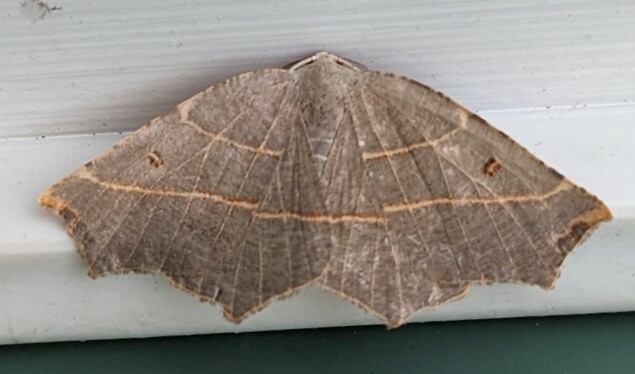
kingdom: Animalia
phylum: Arthropoda
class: Insecta
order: Lepidoptera
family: Geometridae
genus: Metanema
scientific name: Metanema inatomaria
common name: Pale metanema
